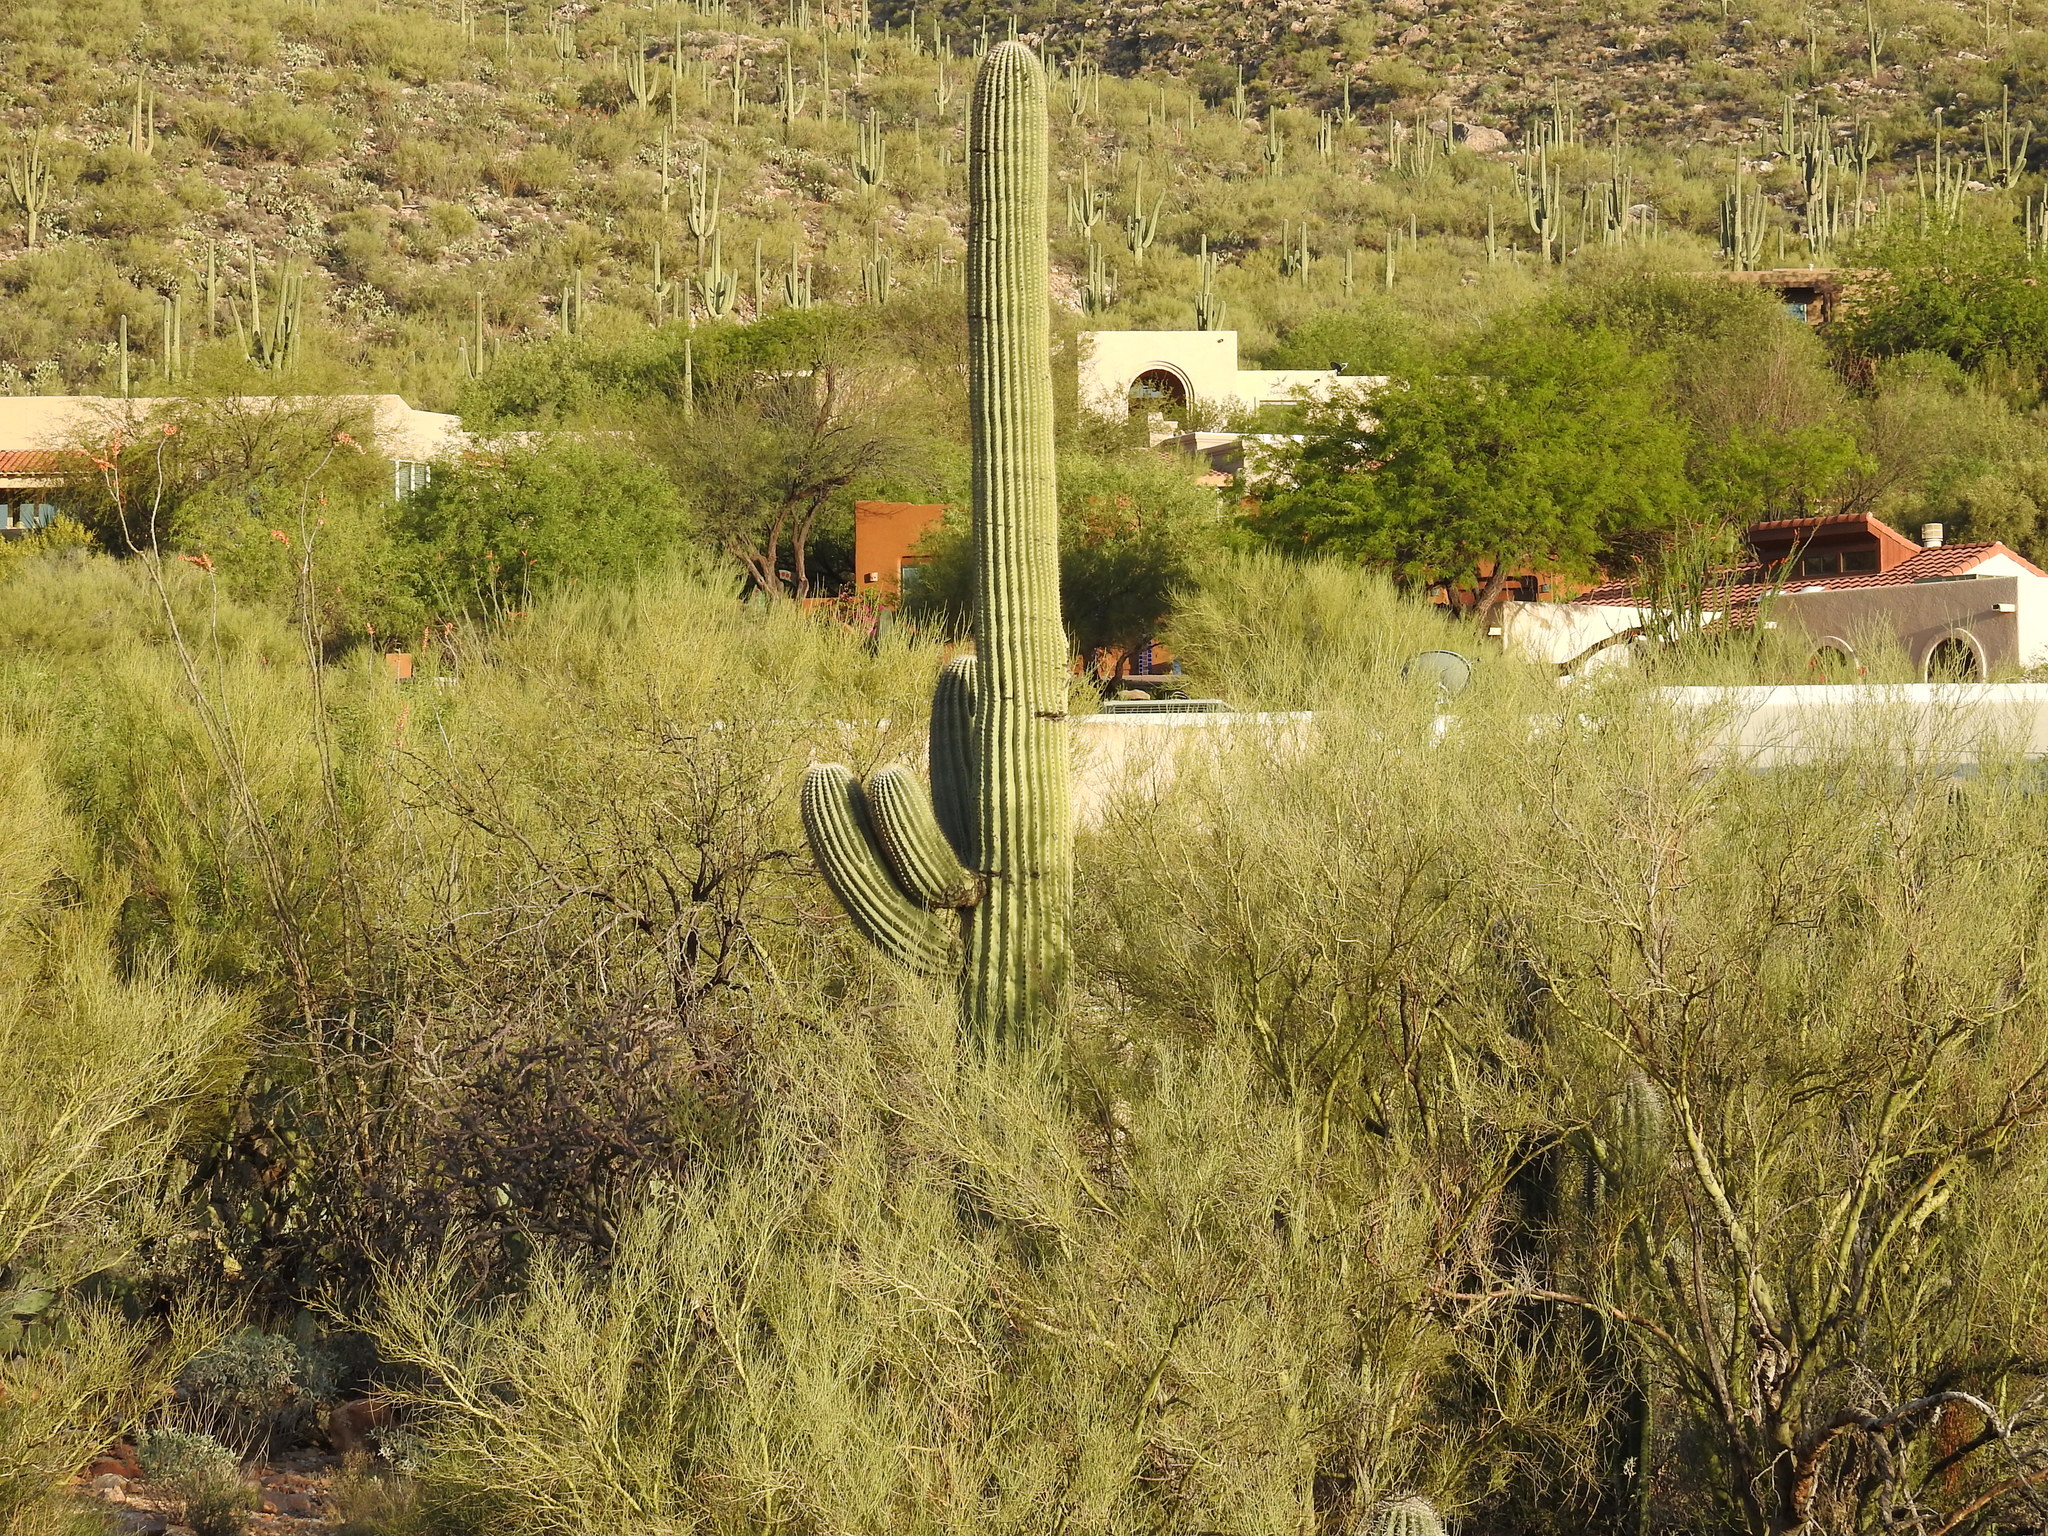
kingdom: Plantae
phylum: Tracheophyta
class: Magnoliopsida
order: Caryophyllales
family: Cactaceae
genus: Carnegiea
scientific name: Carnegiea gigantea
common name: Saguaro
